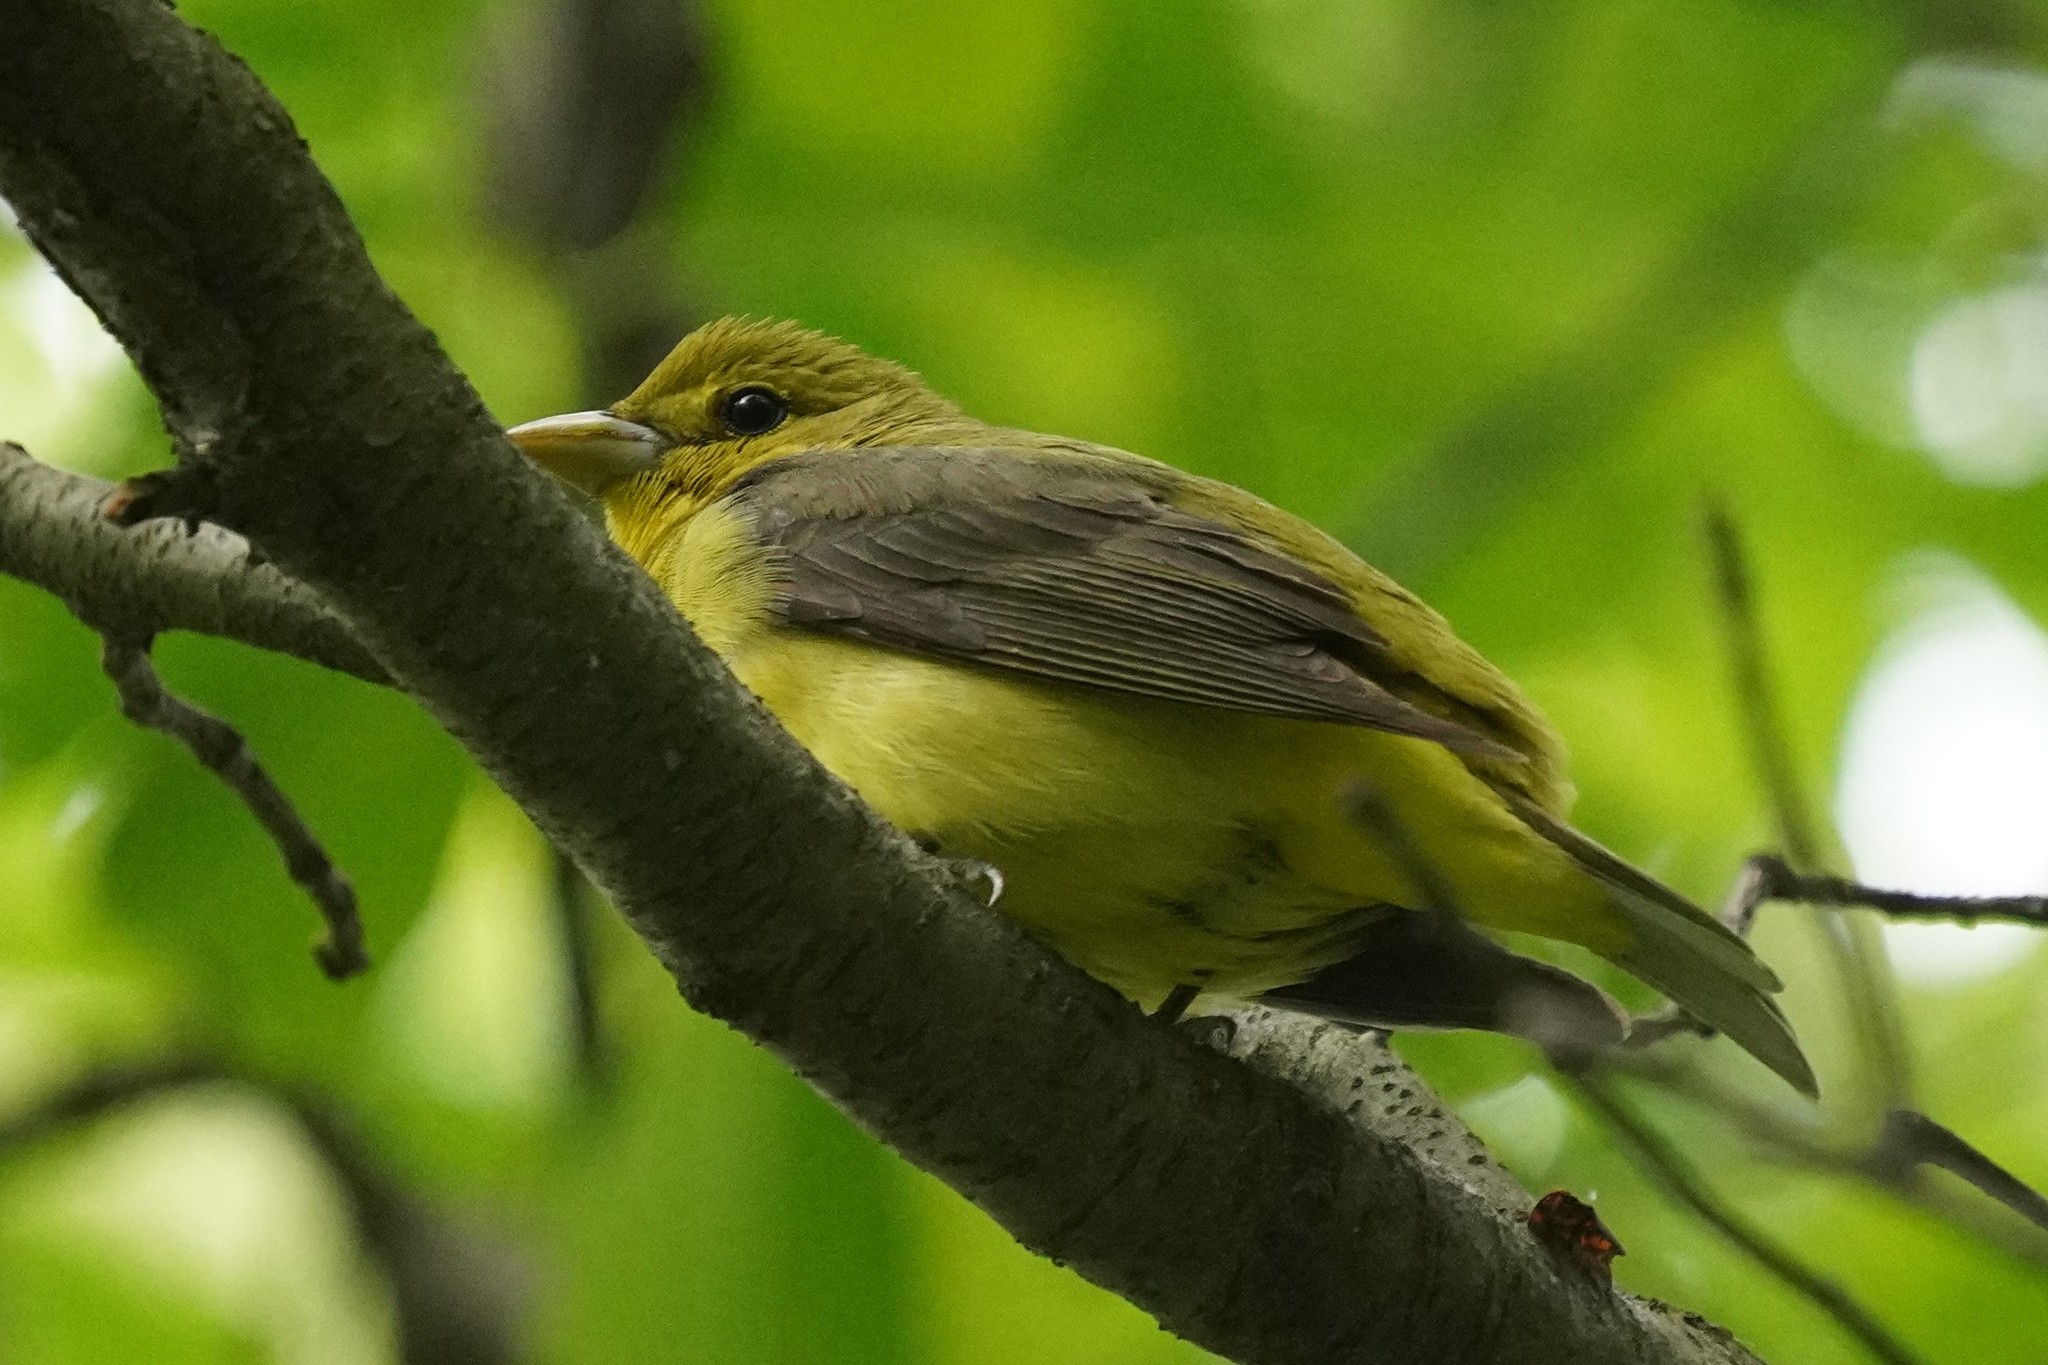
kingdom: Animalia
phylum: Chordata
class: Aves
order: Passeriformes
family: Cardinalidae
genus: Piranga
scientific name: Piranga olivacea
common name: Scarlet tanager
